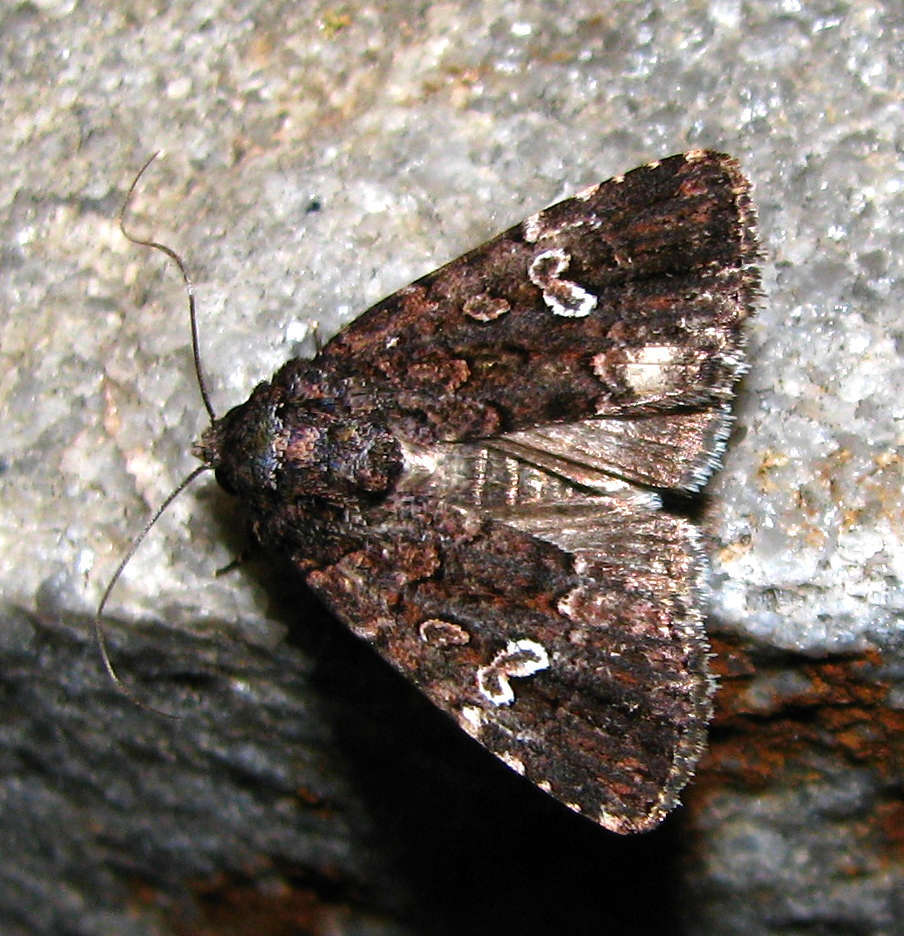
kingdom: Animalia
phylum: Arthropoda
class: Insecta
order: Lepidoptera
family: Noctuidae
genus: Ectopatria
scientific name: Ectopatria horologa
